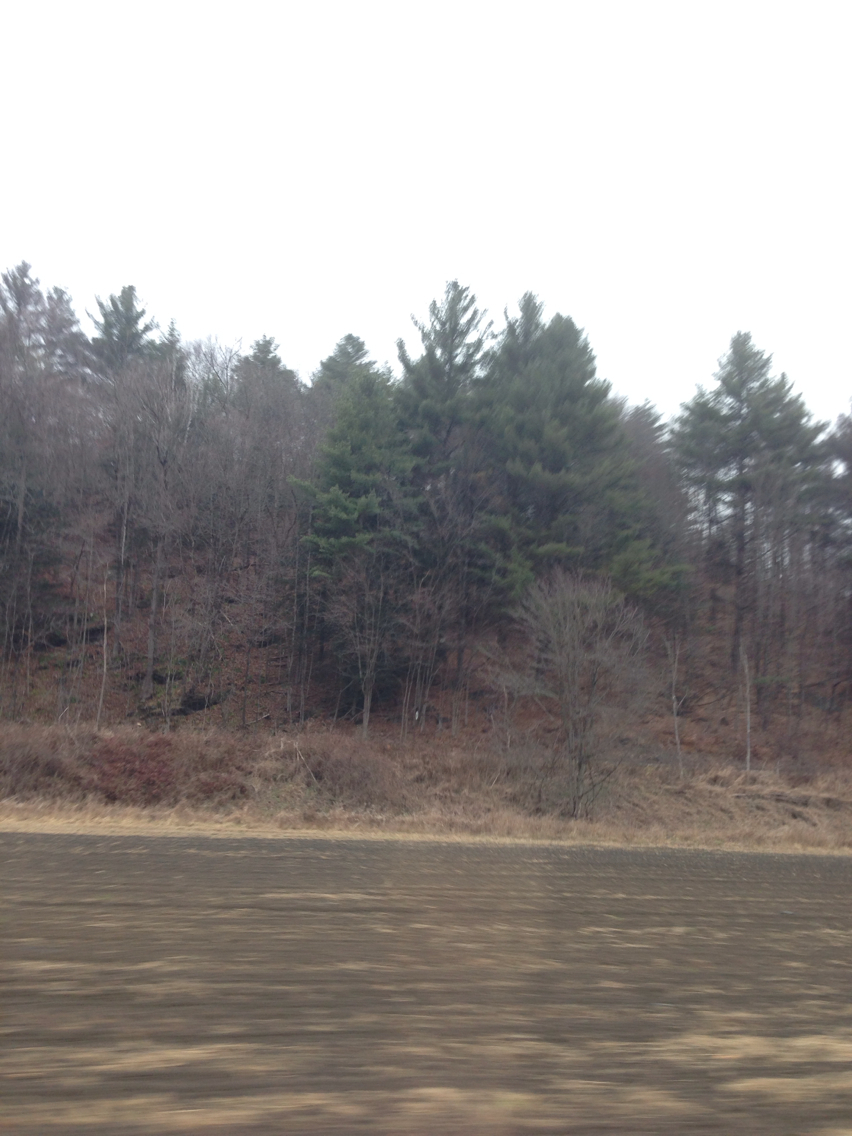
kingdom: Plantae
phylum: Tracheophyta
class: Pinopsida
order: Pinales
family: Pinaceae
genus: Pinus
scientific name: Pinus strobus
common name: Weymouth pine
